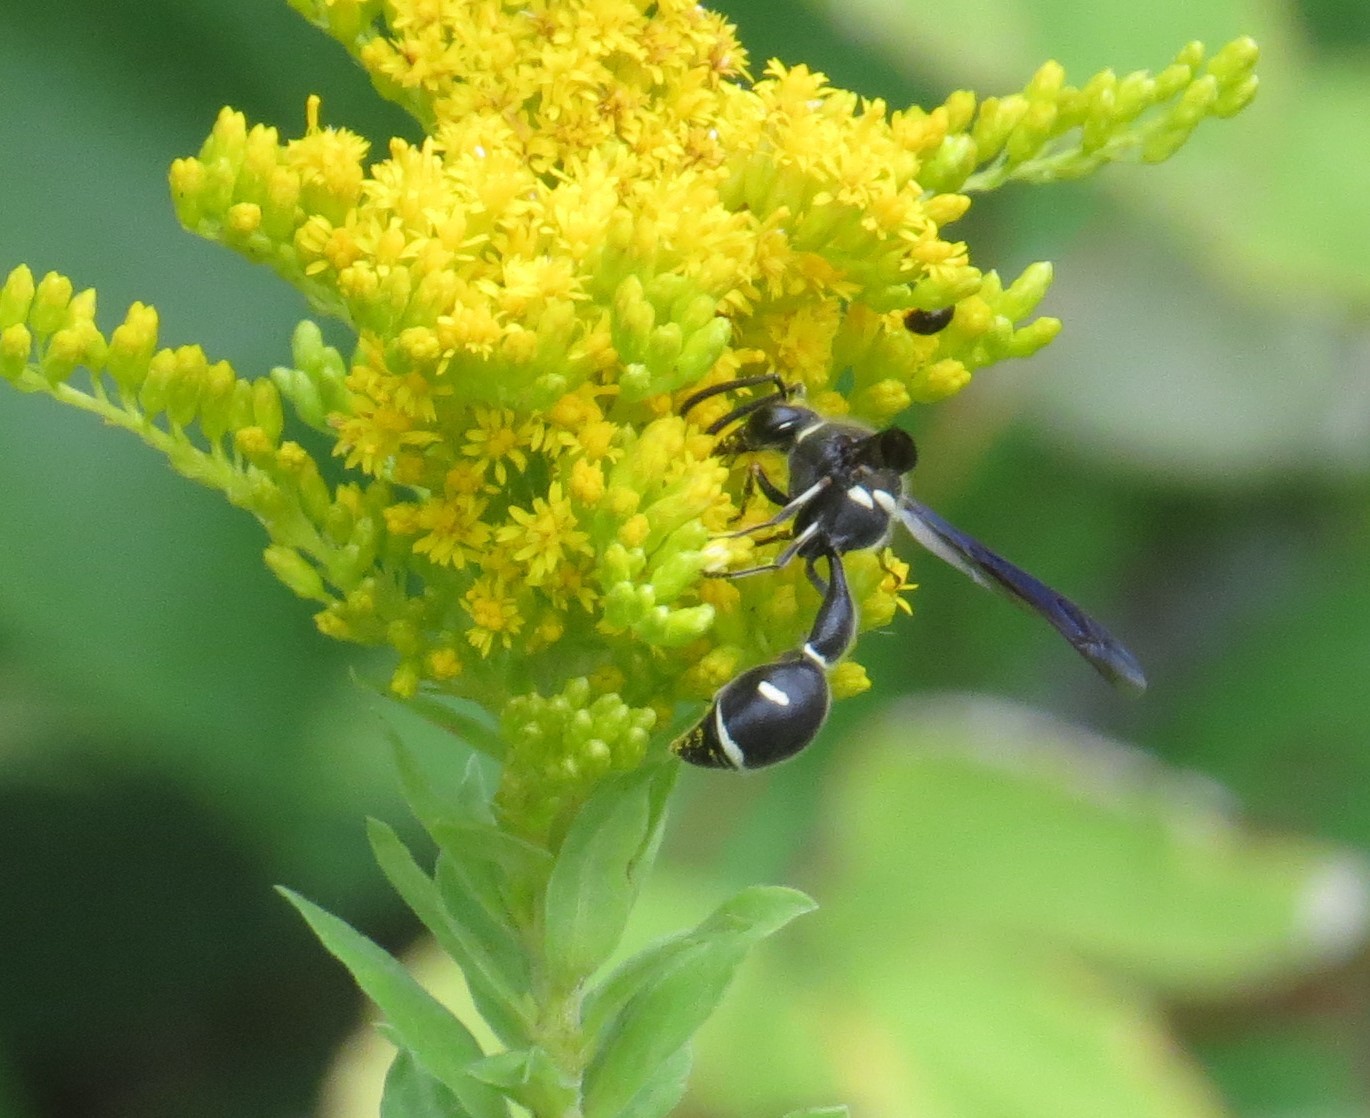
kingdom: Animalia
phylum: Arthropoda
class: Insecta
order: Hymenoptera
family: Vespidae
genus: Eumenes
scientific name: Eumenes fraternus
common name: Fraternal potter wasp
